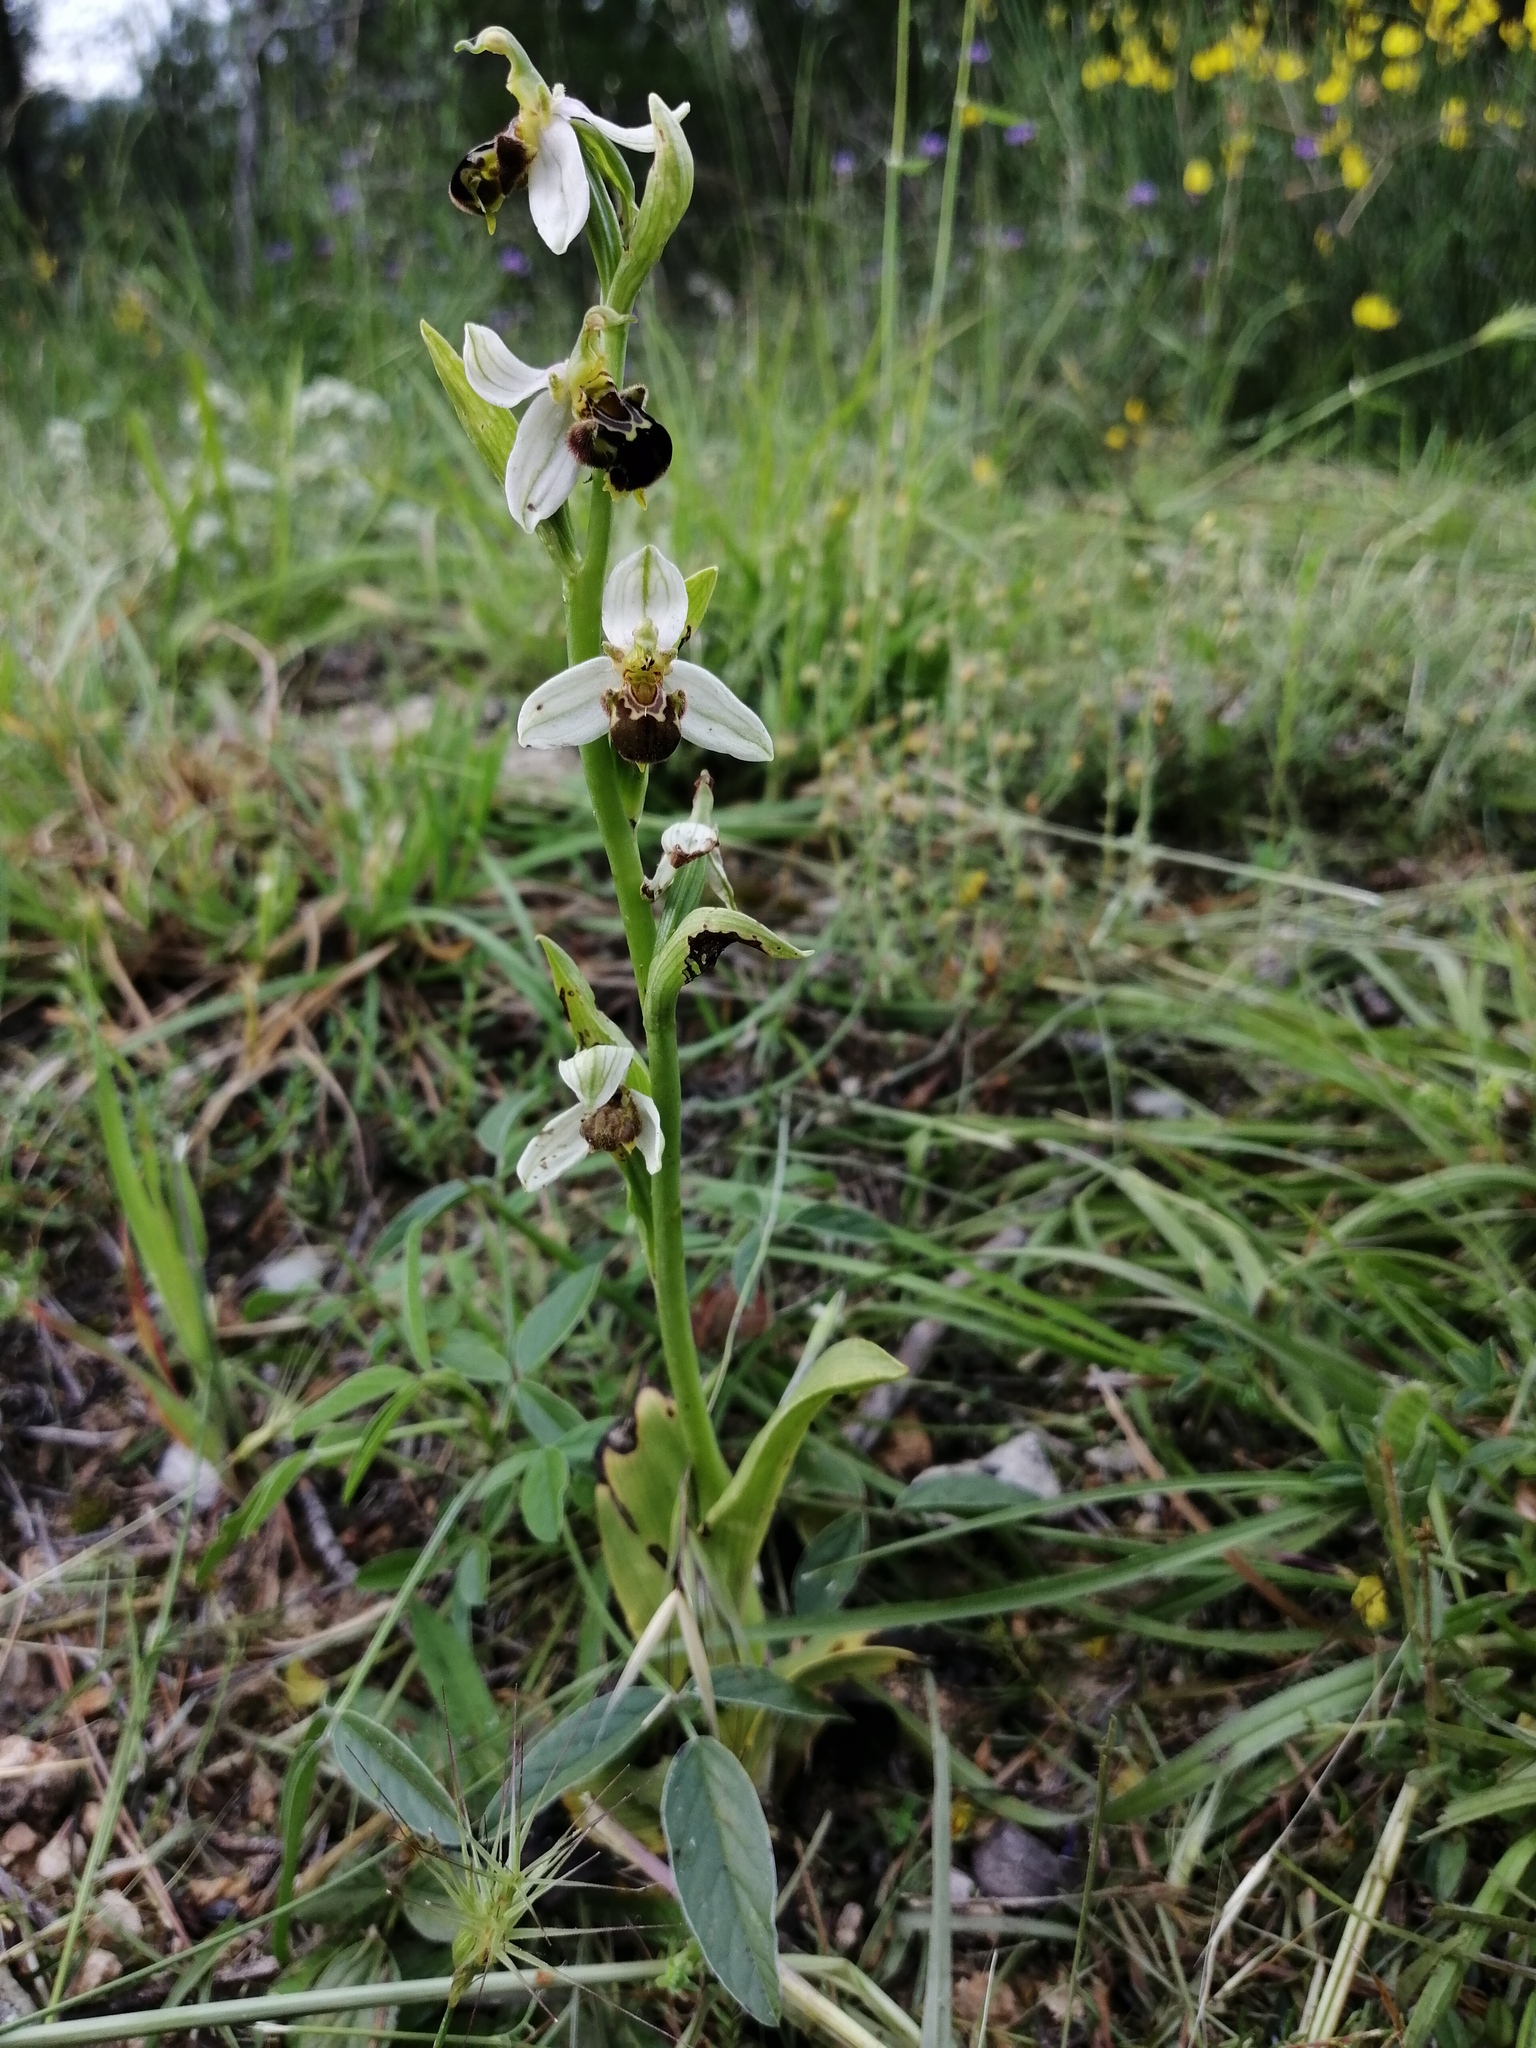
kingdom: Plantae
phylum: Tracheophyta
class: Liliopsida
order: Asparagales
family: Orchidaceae
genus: Ophrys
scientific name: Ophrys apifera
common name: Bee orchid
